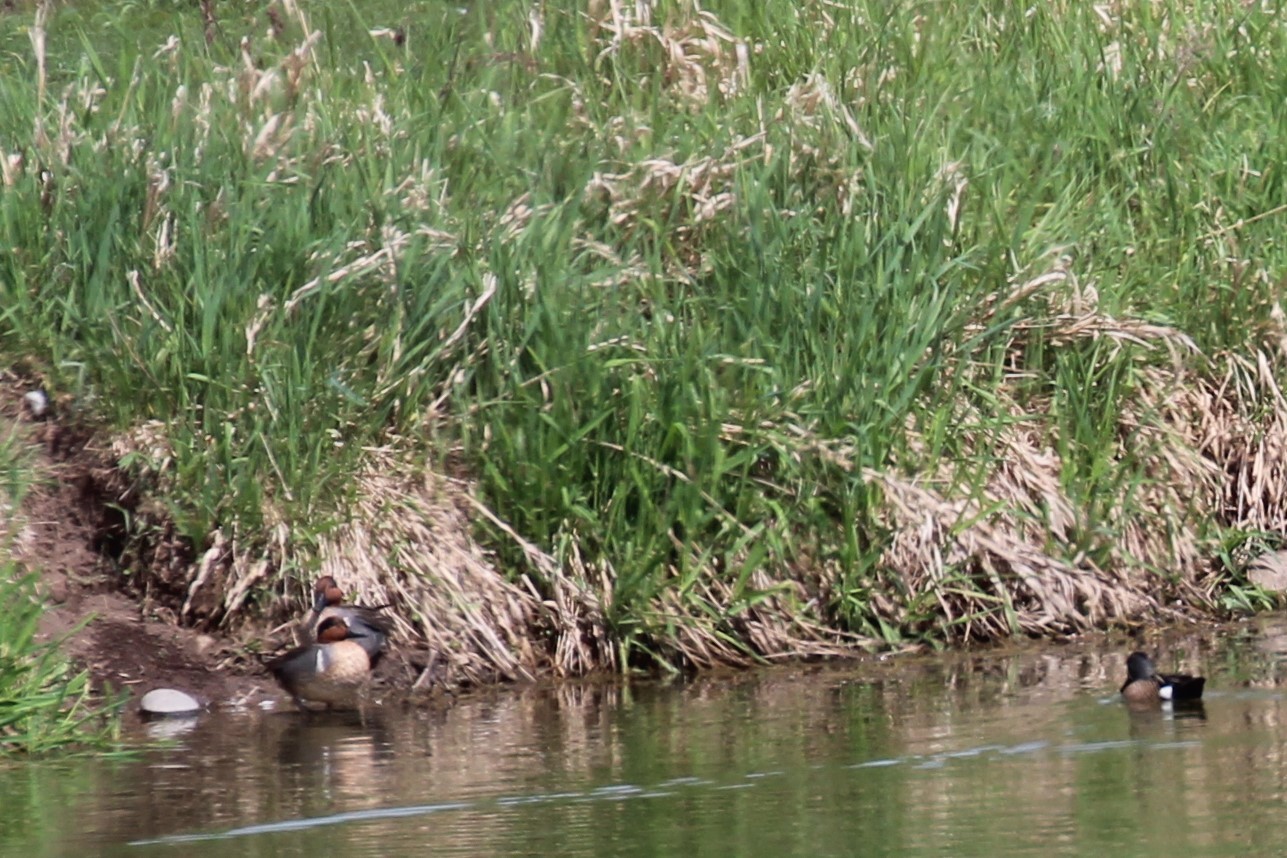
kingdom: Animalia
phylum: Chordata
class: Aves
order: Anseriformes
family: Anatidae
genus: Anas
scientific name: Anas crecca
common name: Eurasian teal
